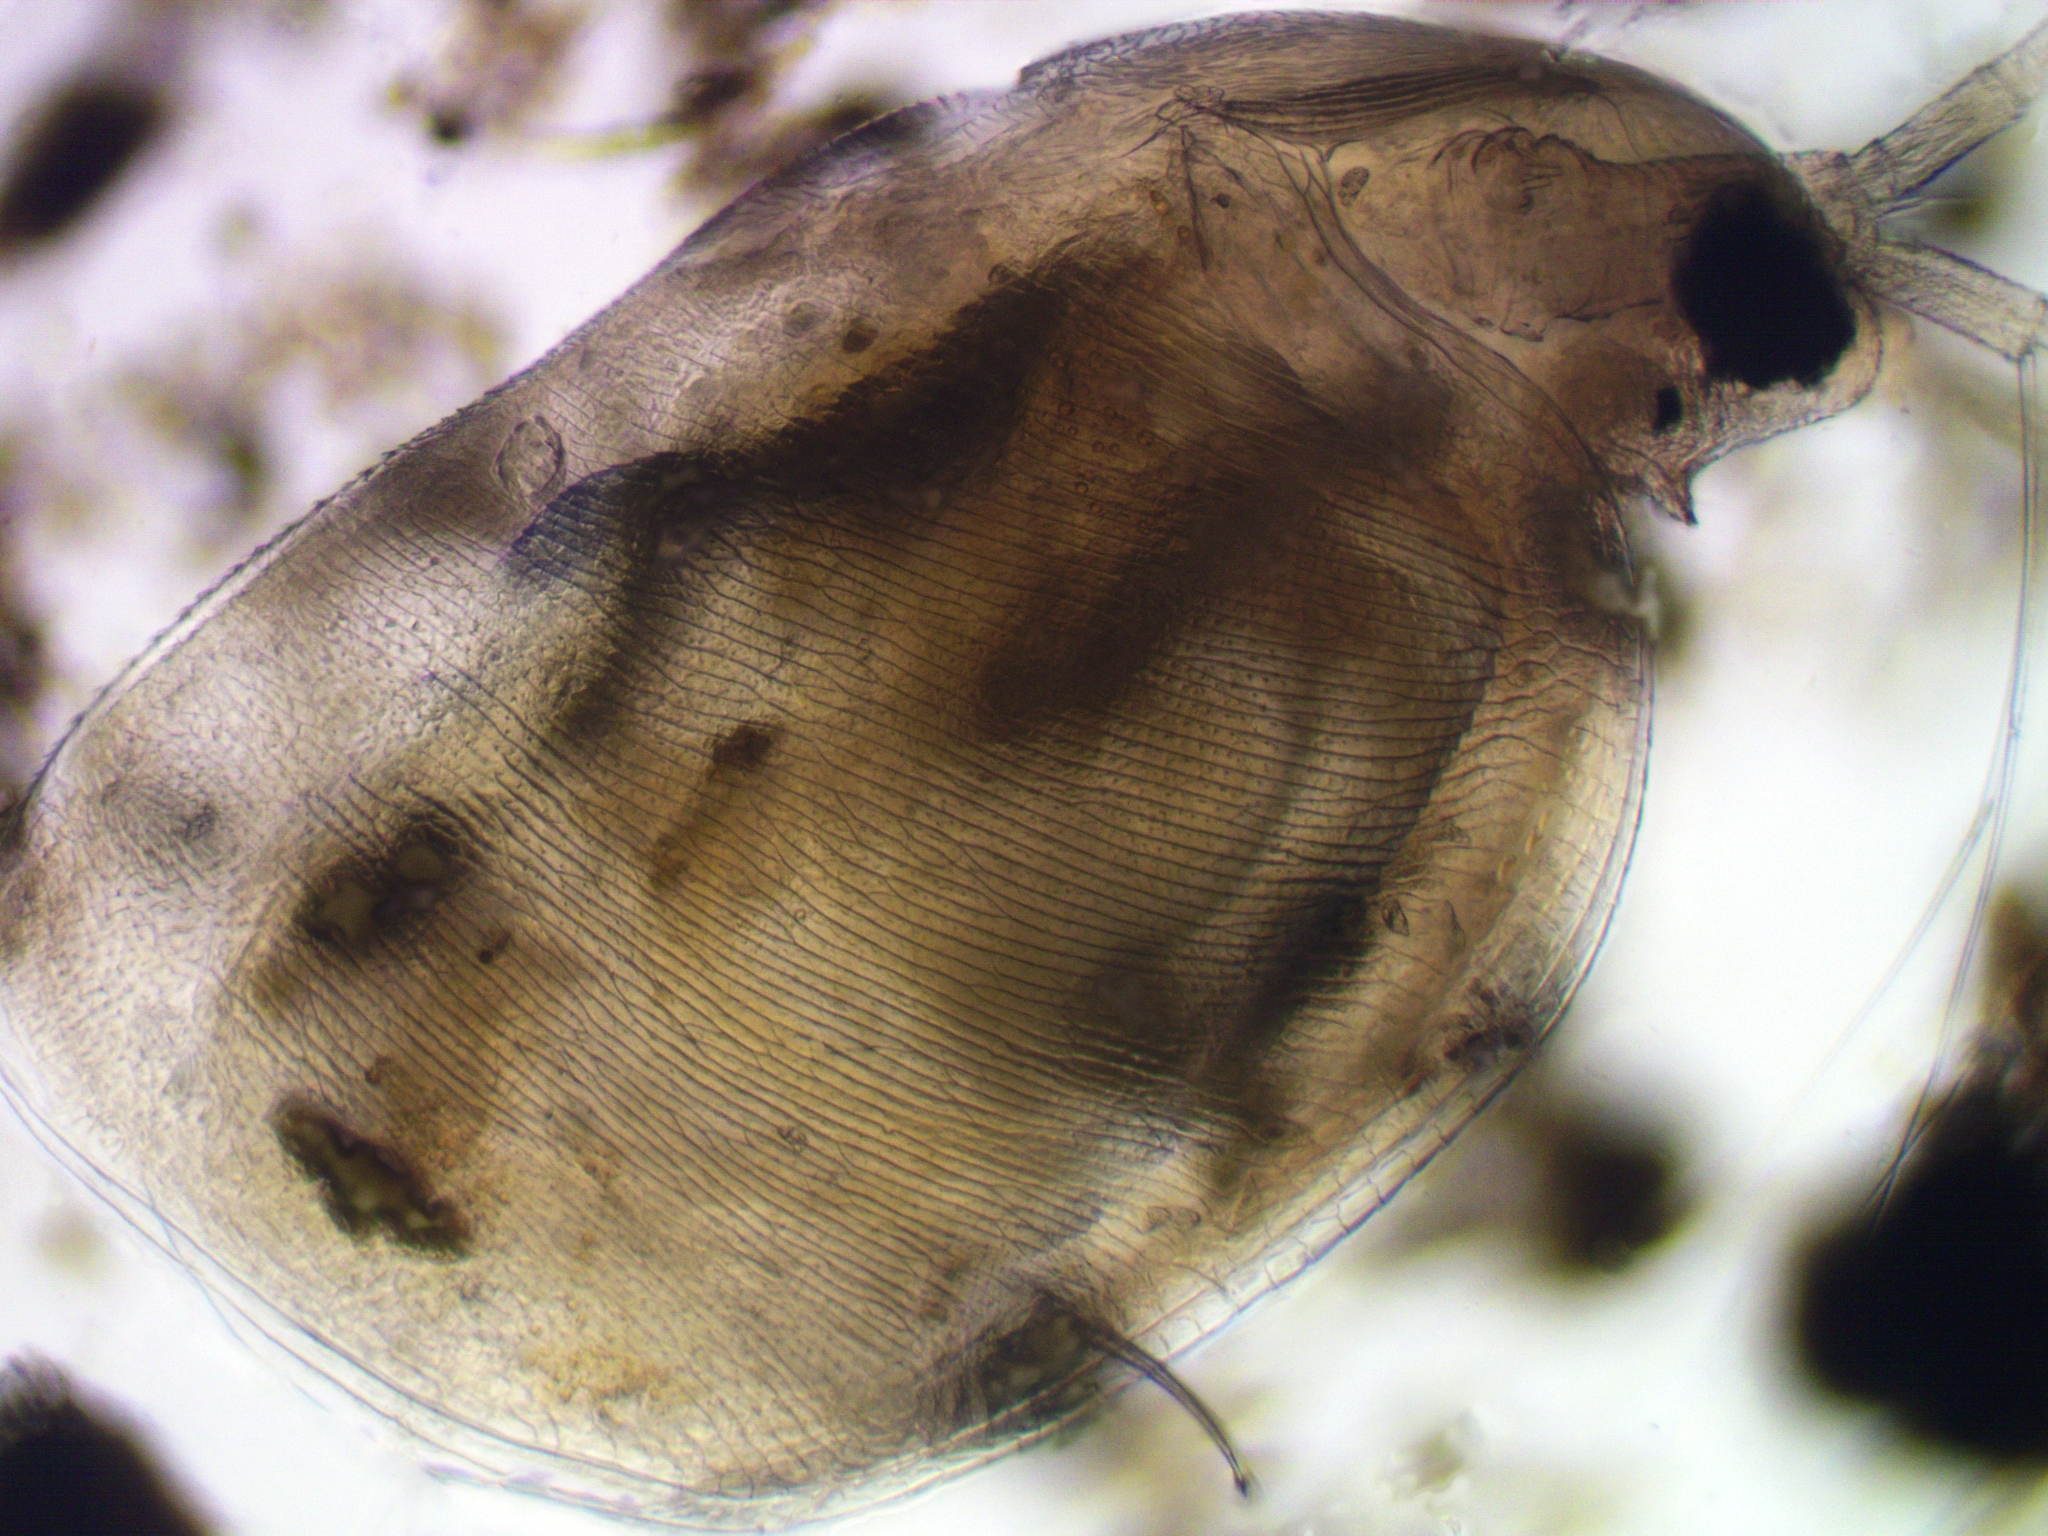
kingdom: Animalia
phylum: Arthropoda
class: Branchiopoda
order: Diplostraca
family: Daphniidae
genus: Simocephalus
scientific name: Simocephalus vetulus
